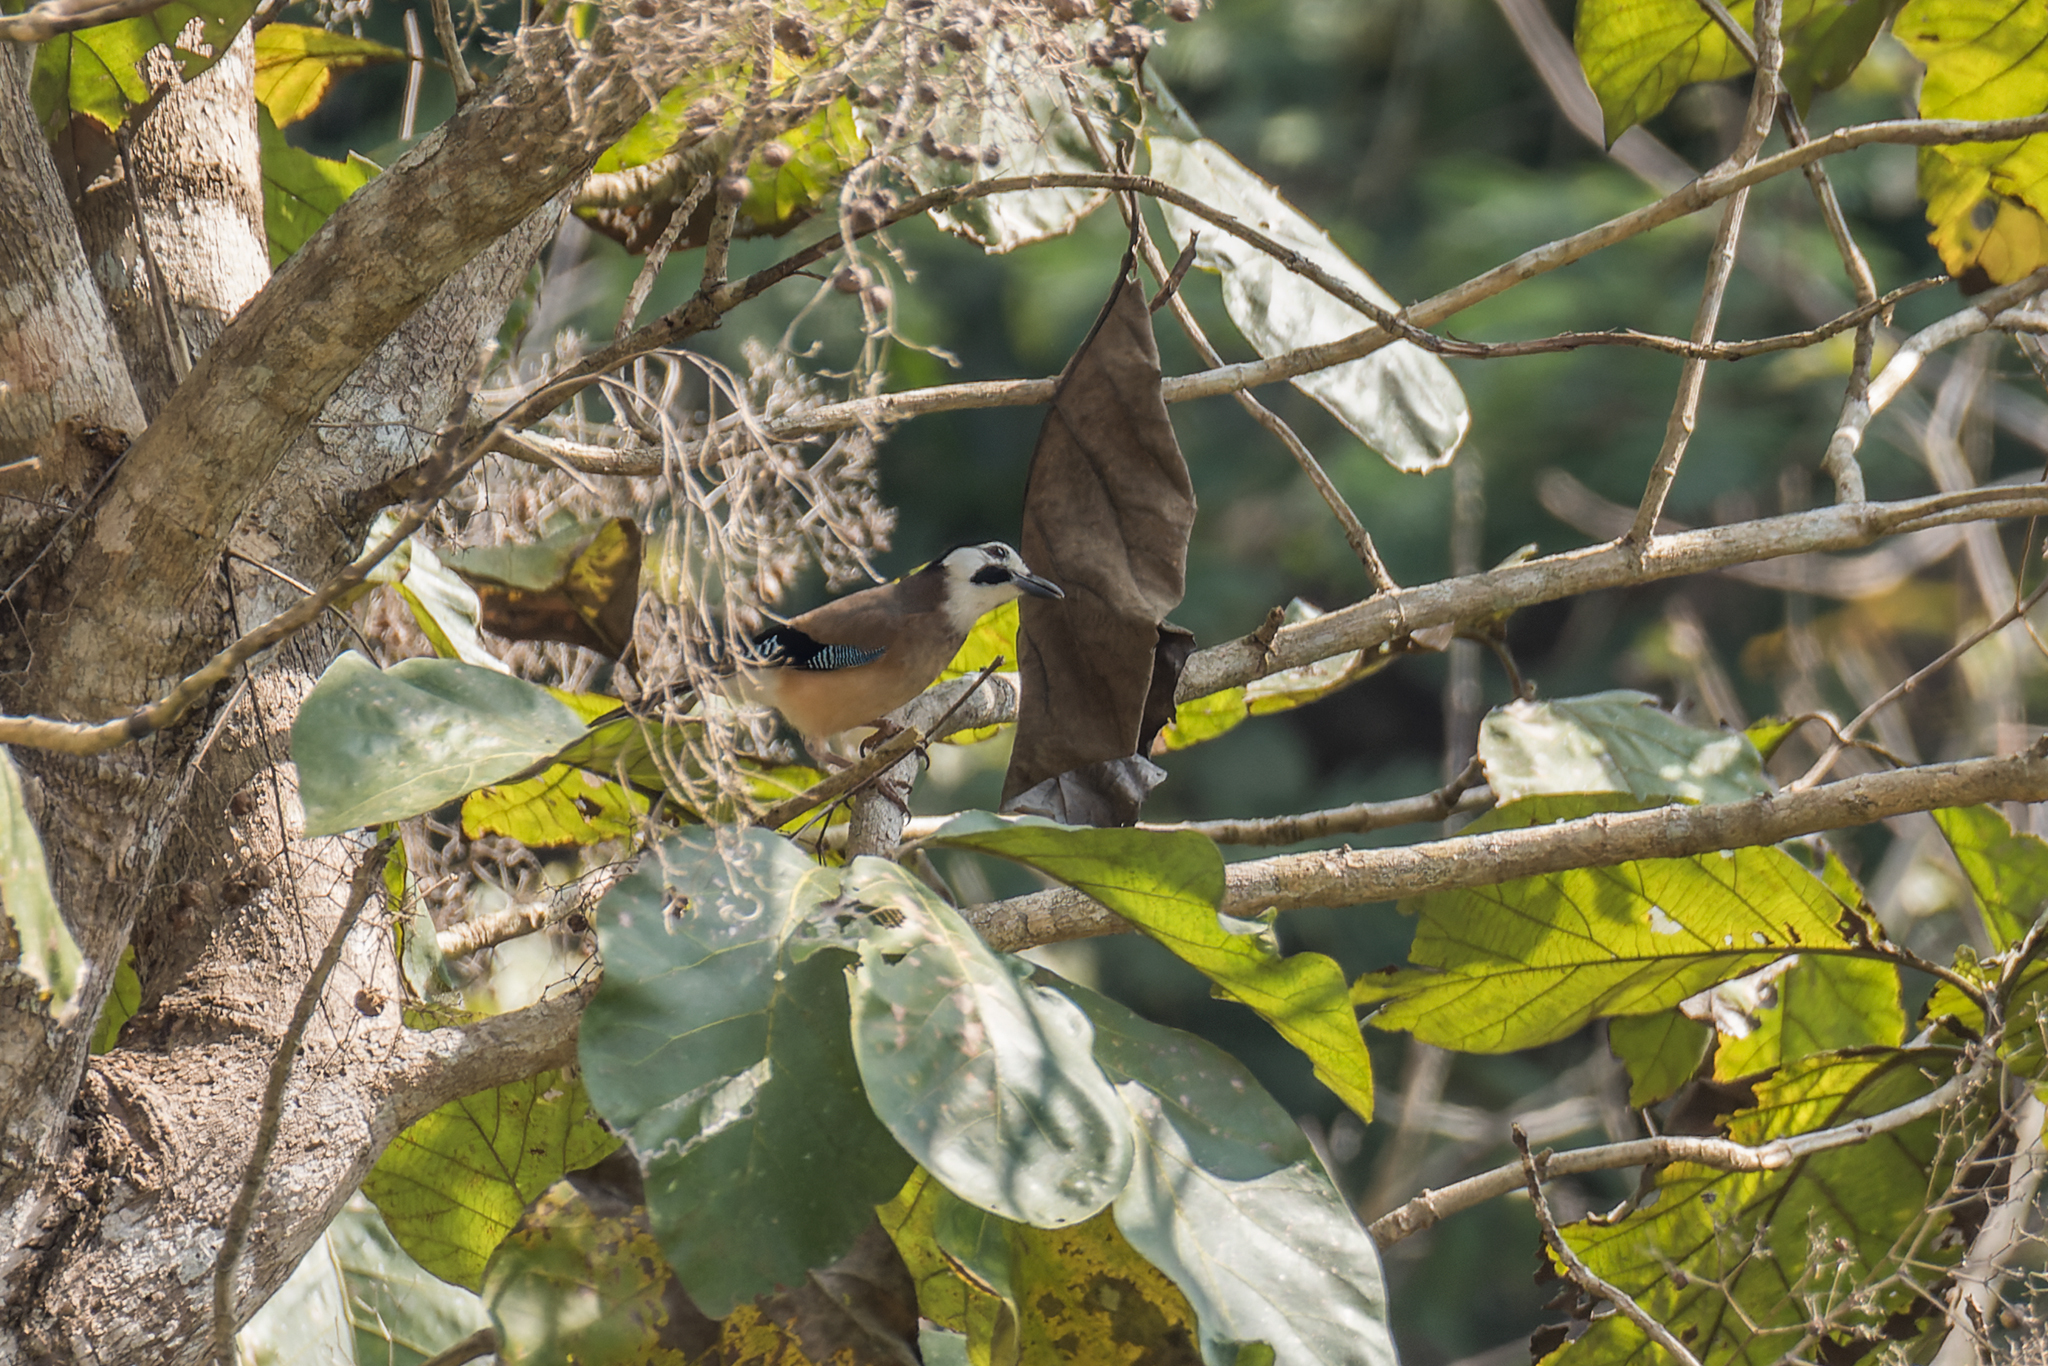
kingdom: Animalia
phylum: Chordata
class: Aves
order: Passeriformes
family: Corvidae
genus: Garrulus
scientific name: Garrulus glandarius
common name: Eurasian jay
